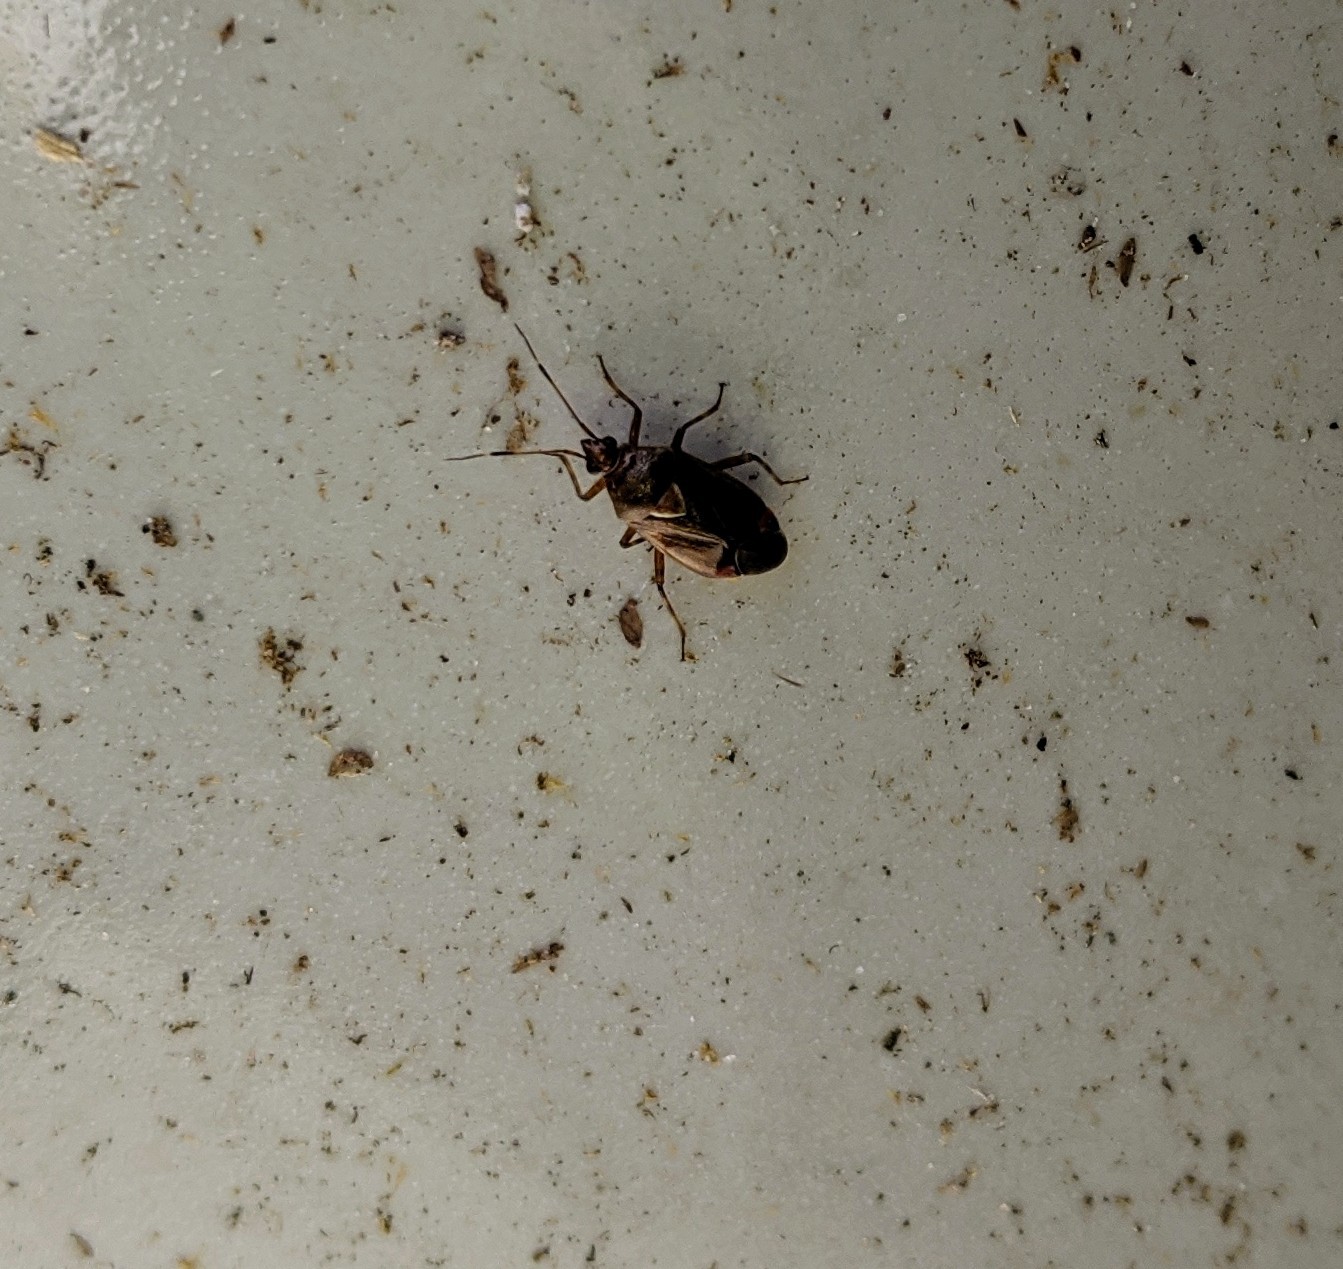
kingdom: Animalia
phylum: Arthropoda
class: Insecta
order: Hemiptera
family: Miridae
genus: Deraeocoris
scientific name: Deraeocoris flavilinea
